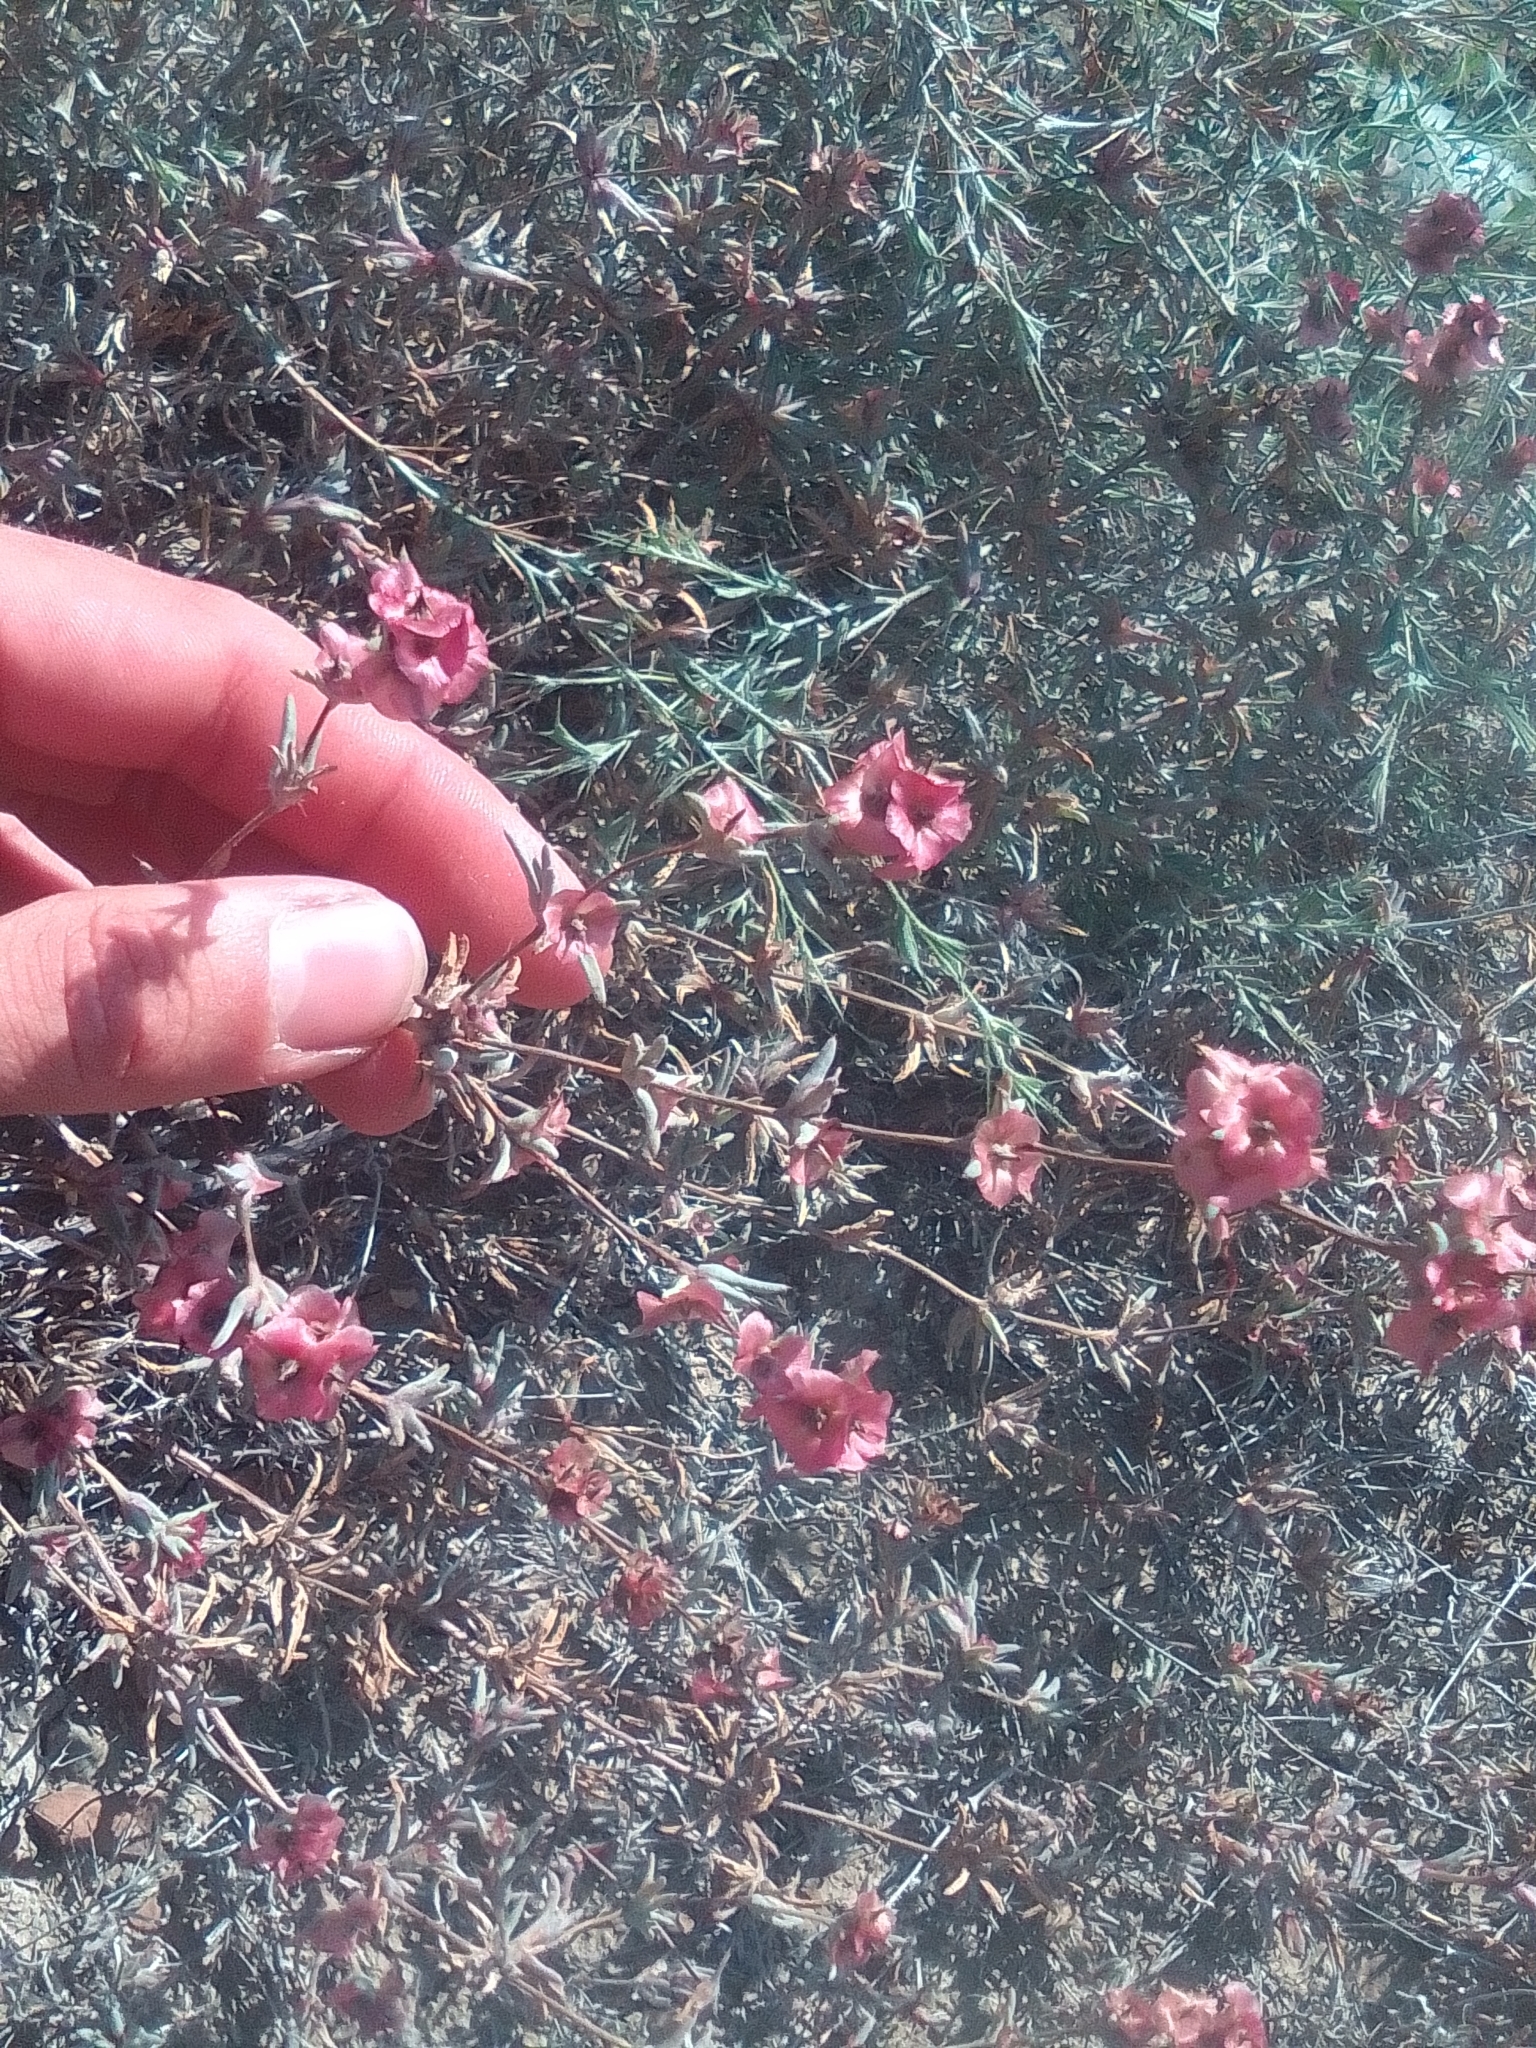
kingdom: Plantae
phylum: Tracheophyta
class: Magnoliopsida
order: Caryophyllales
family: Amaranthaceae
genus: Pyankovia
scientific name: Pyankovia brachiata
